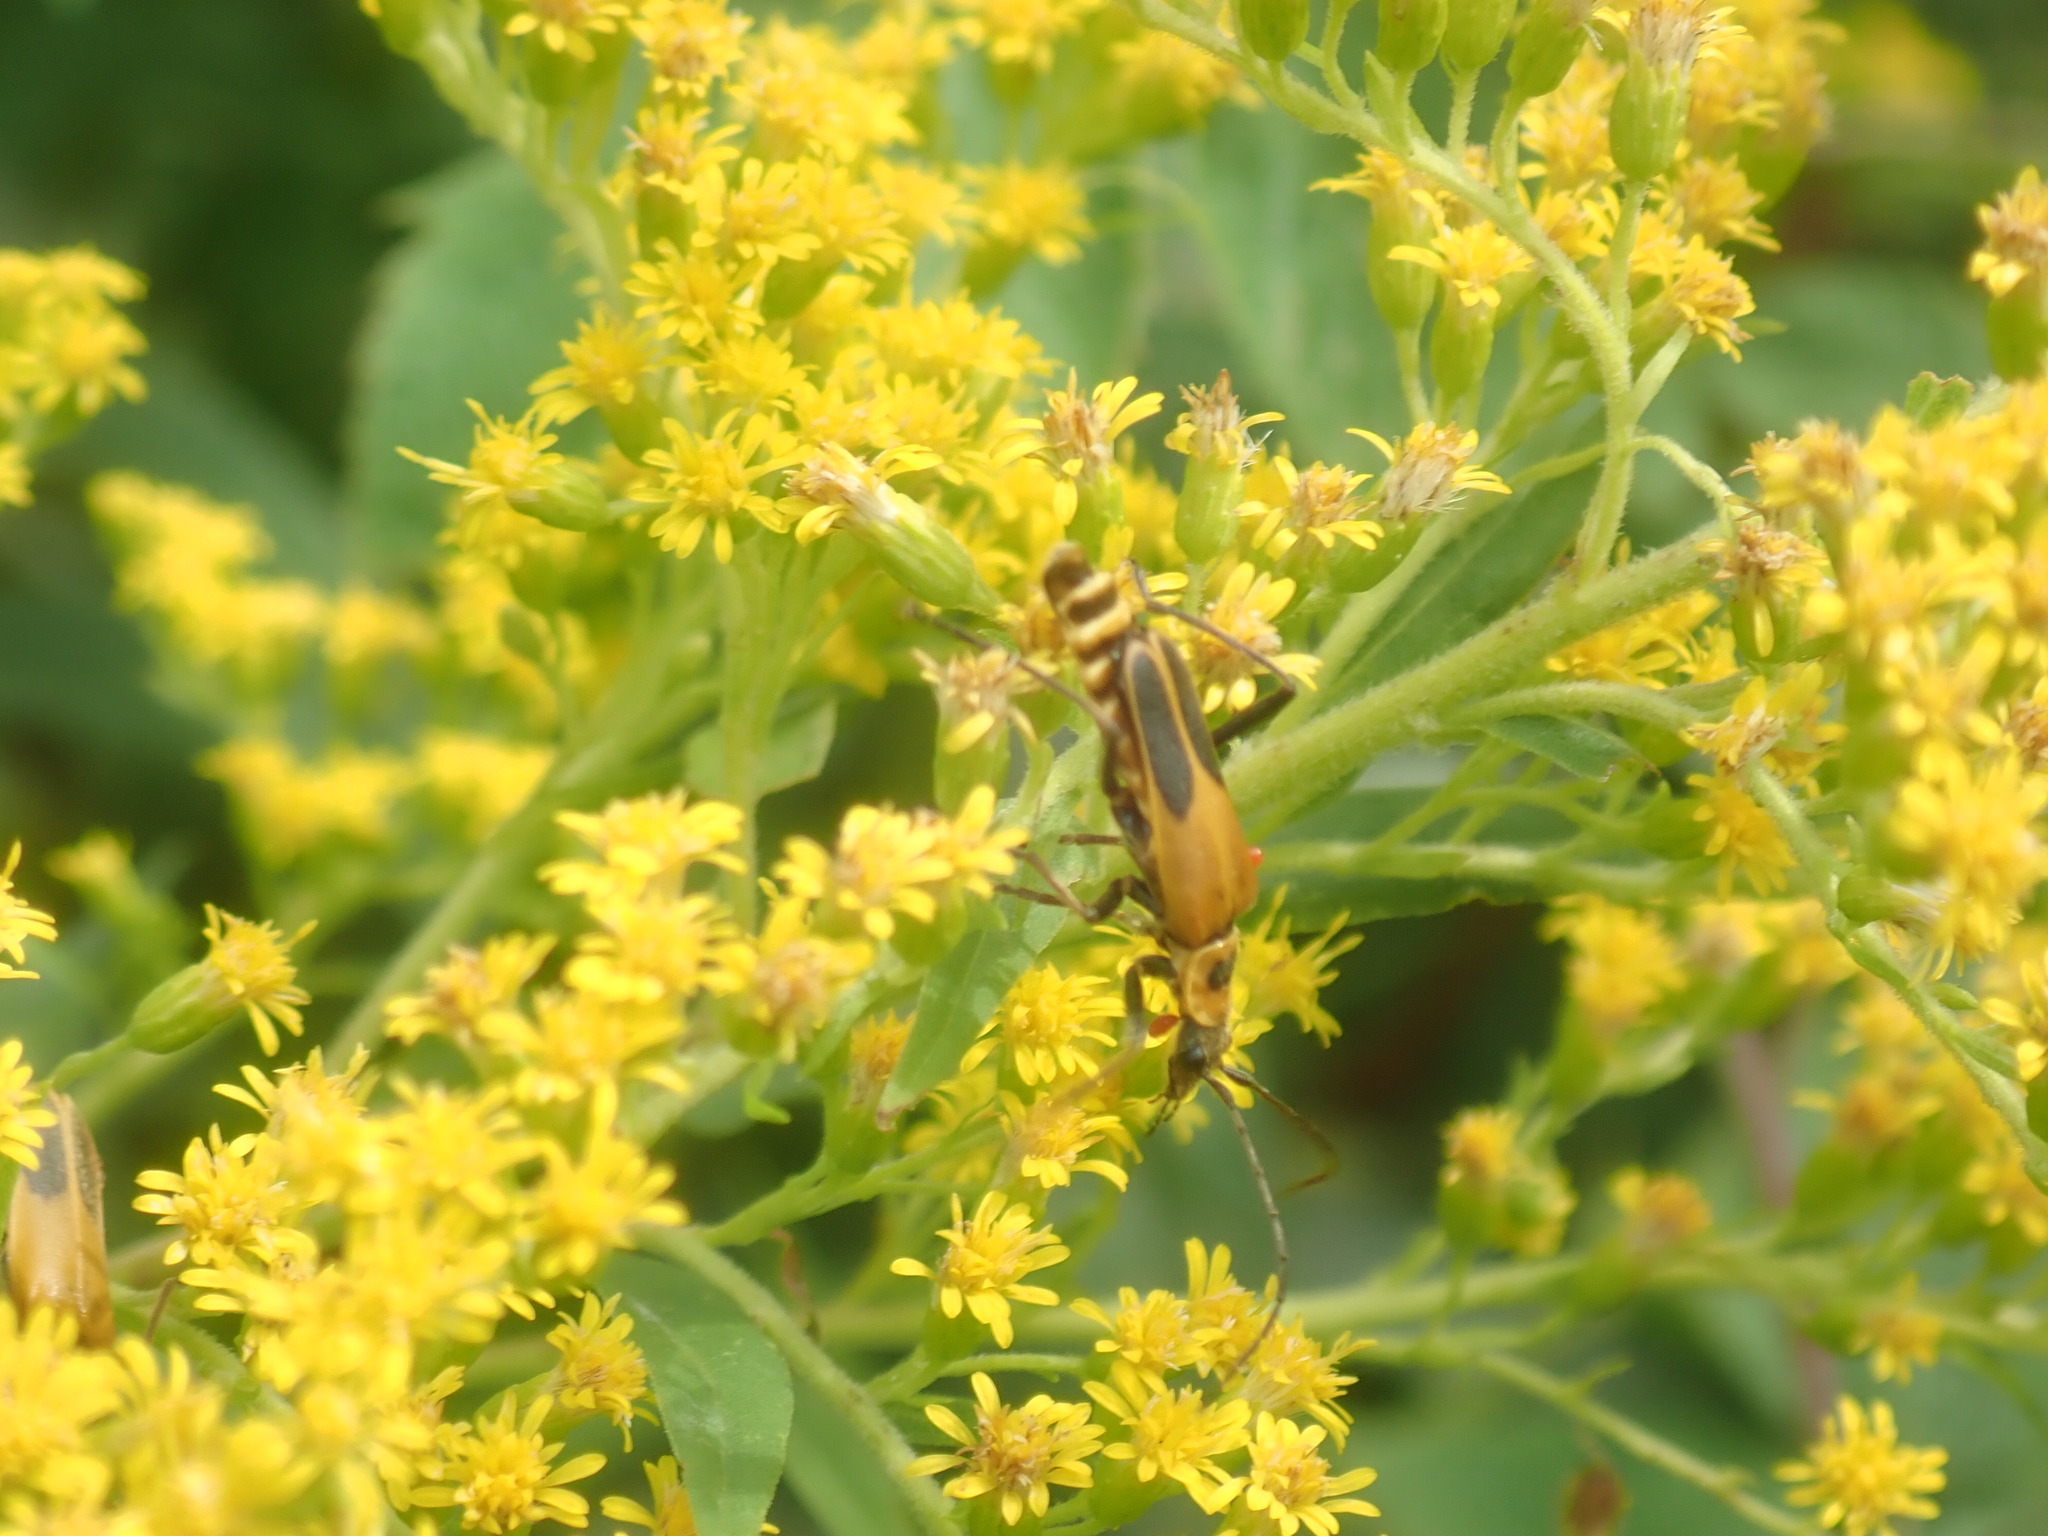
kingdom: Animalia
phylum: Arthropoda
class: Insecta
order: Coleoptera
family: Cantharidae
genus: Chauliognathus
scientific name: Chauliognathus pensylvanicus
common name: Goldenrod soldier beetle
